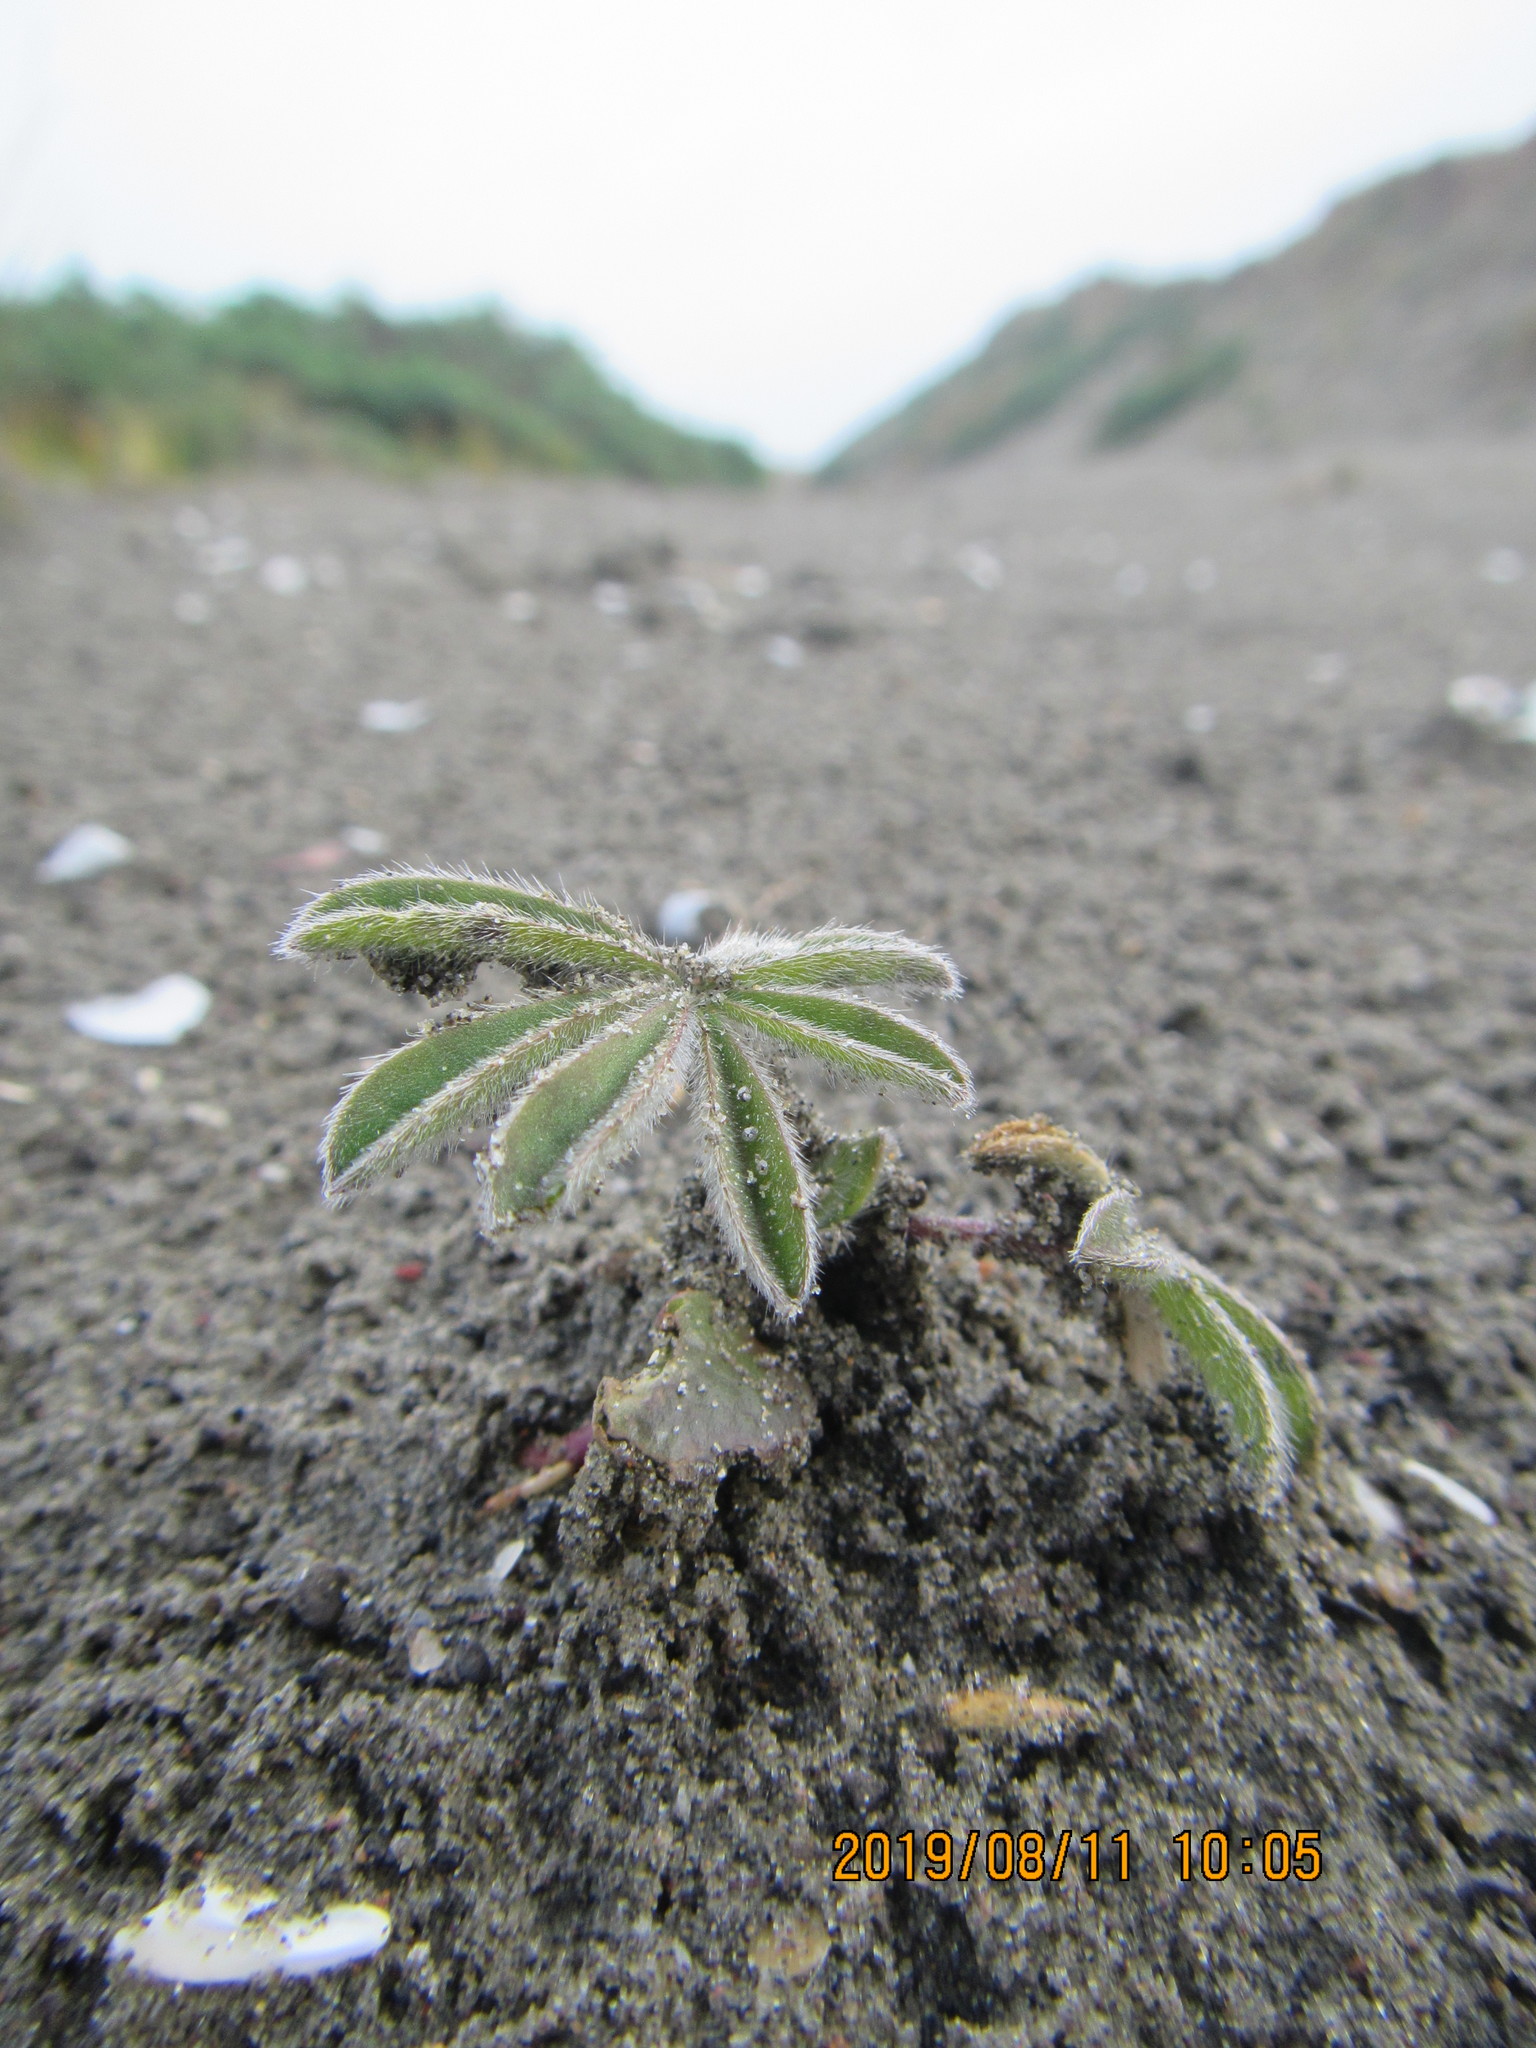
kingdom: Plantae
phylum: Tracheophyta
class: Magnoliopsida
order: Fabales
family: Fabaceae
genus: Lupinus
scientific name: Lupinus arboreus
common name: Yellow bush lupine
